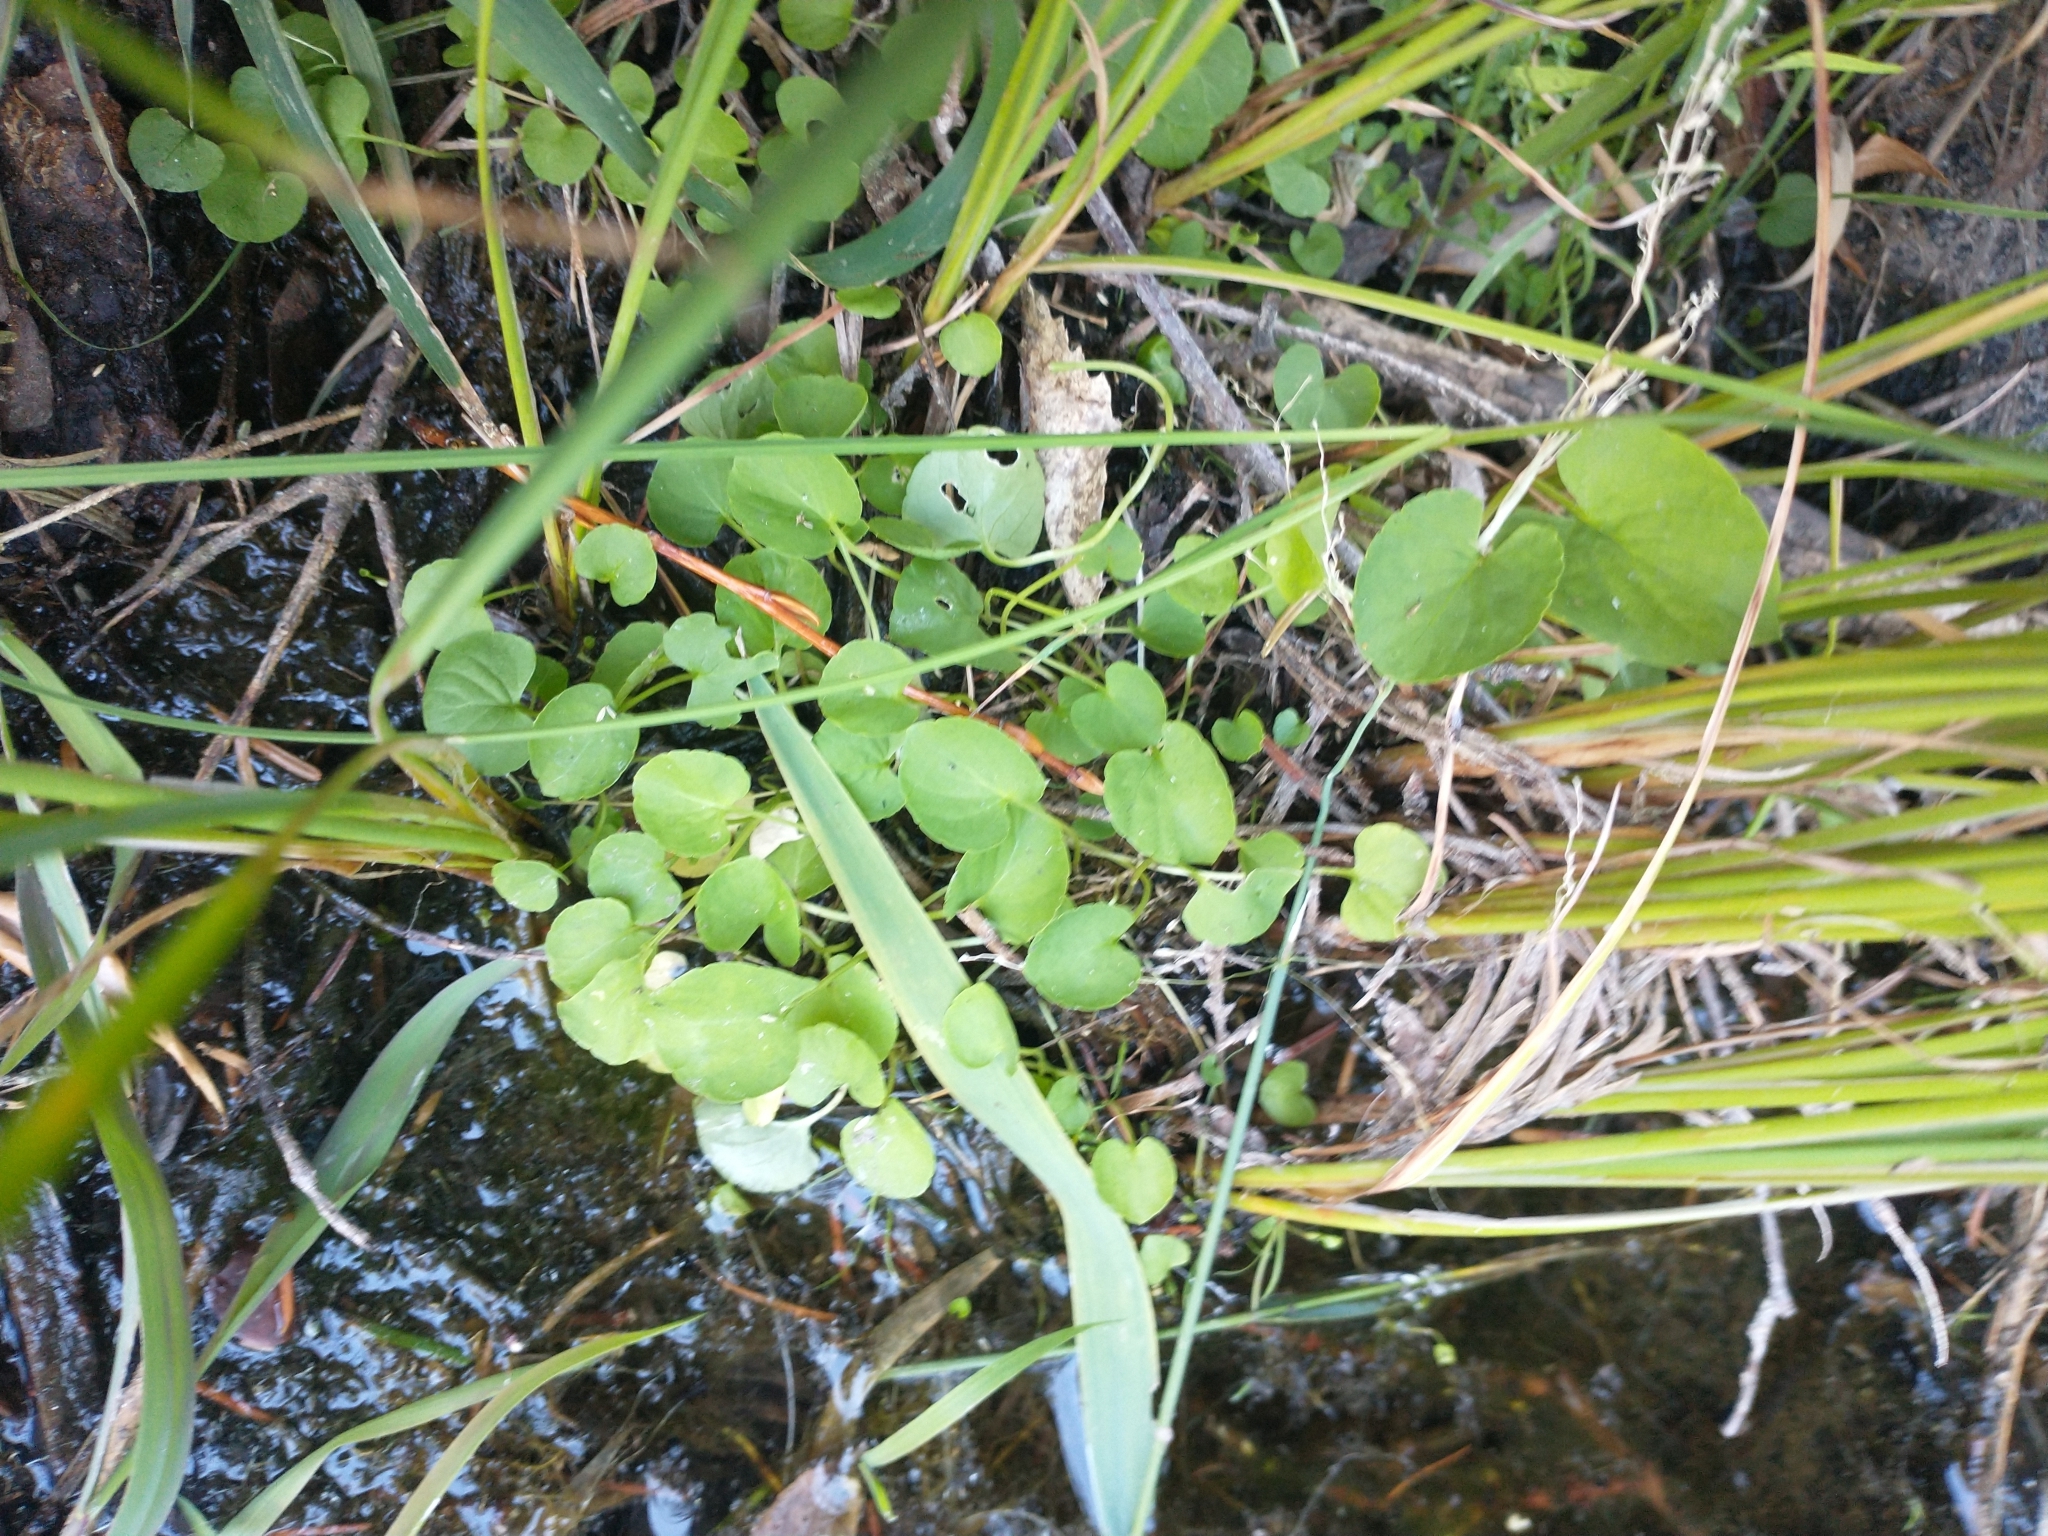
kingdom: Plantae
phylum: Tracheophyta
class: Magnoliopsida
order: Malpighiales
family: Violaceae
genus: Viola
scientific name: Viola macloskeyi
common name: Macloskey's violet
